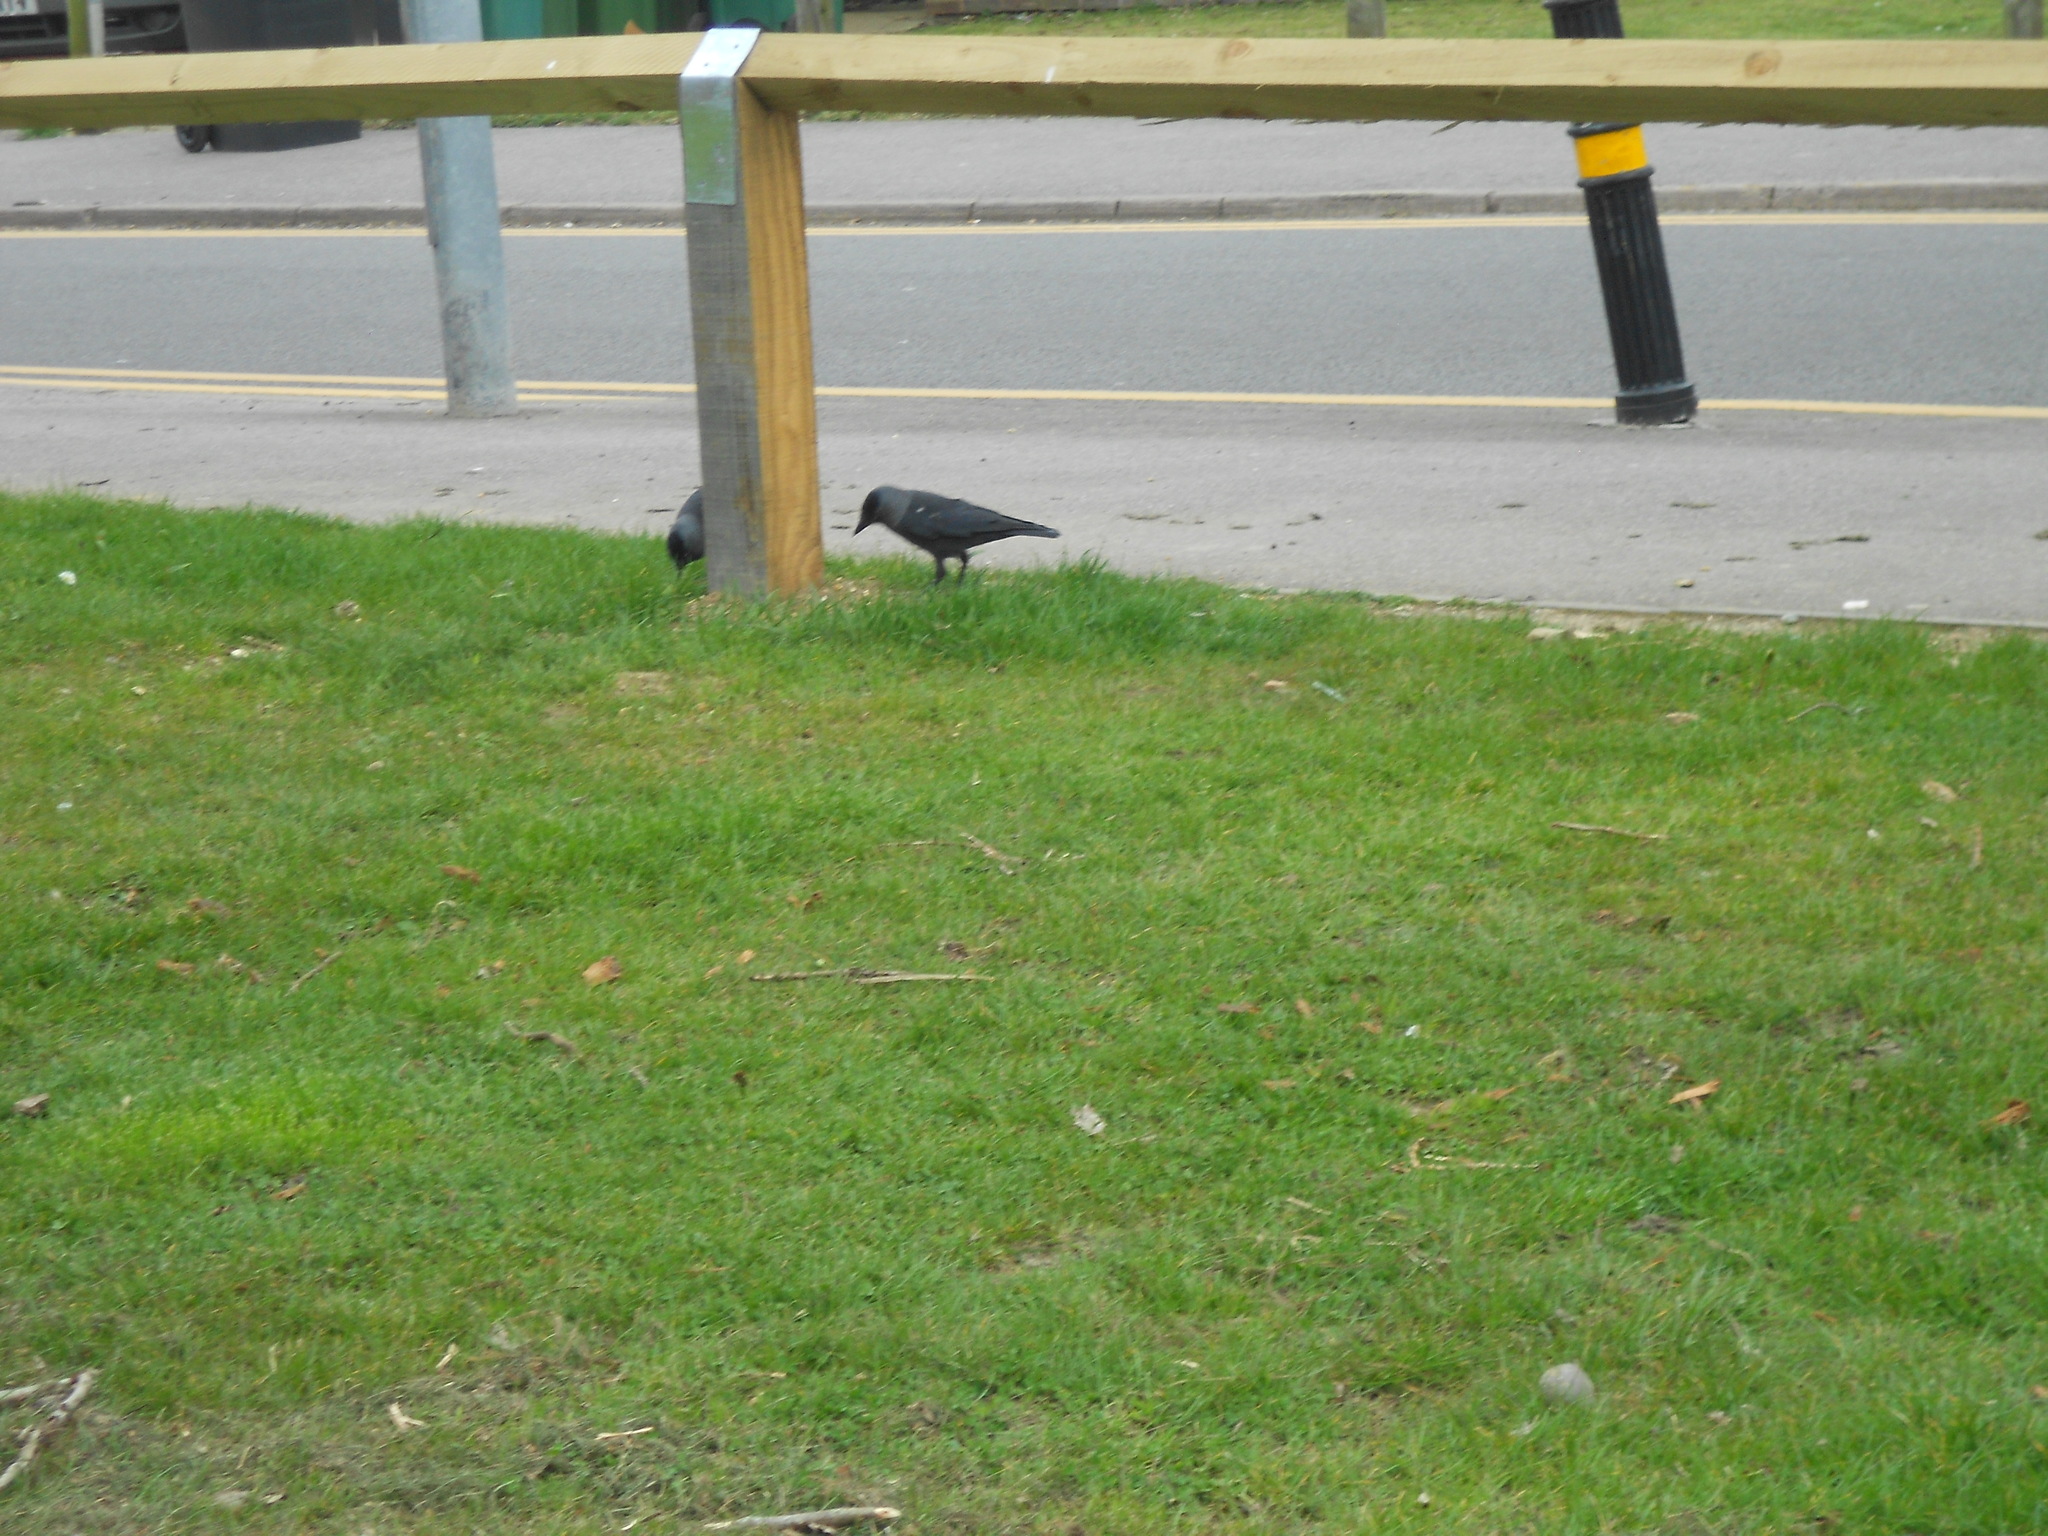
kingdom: Animalia
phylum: Chordata
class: Aves
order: Passeriformes
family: Corvidae
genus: Coloeus
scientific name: Coloeus monedula
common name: Western jackdaw
